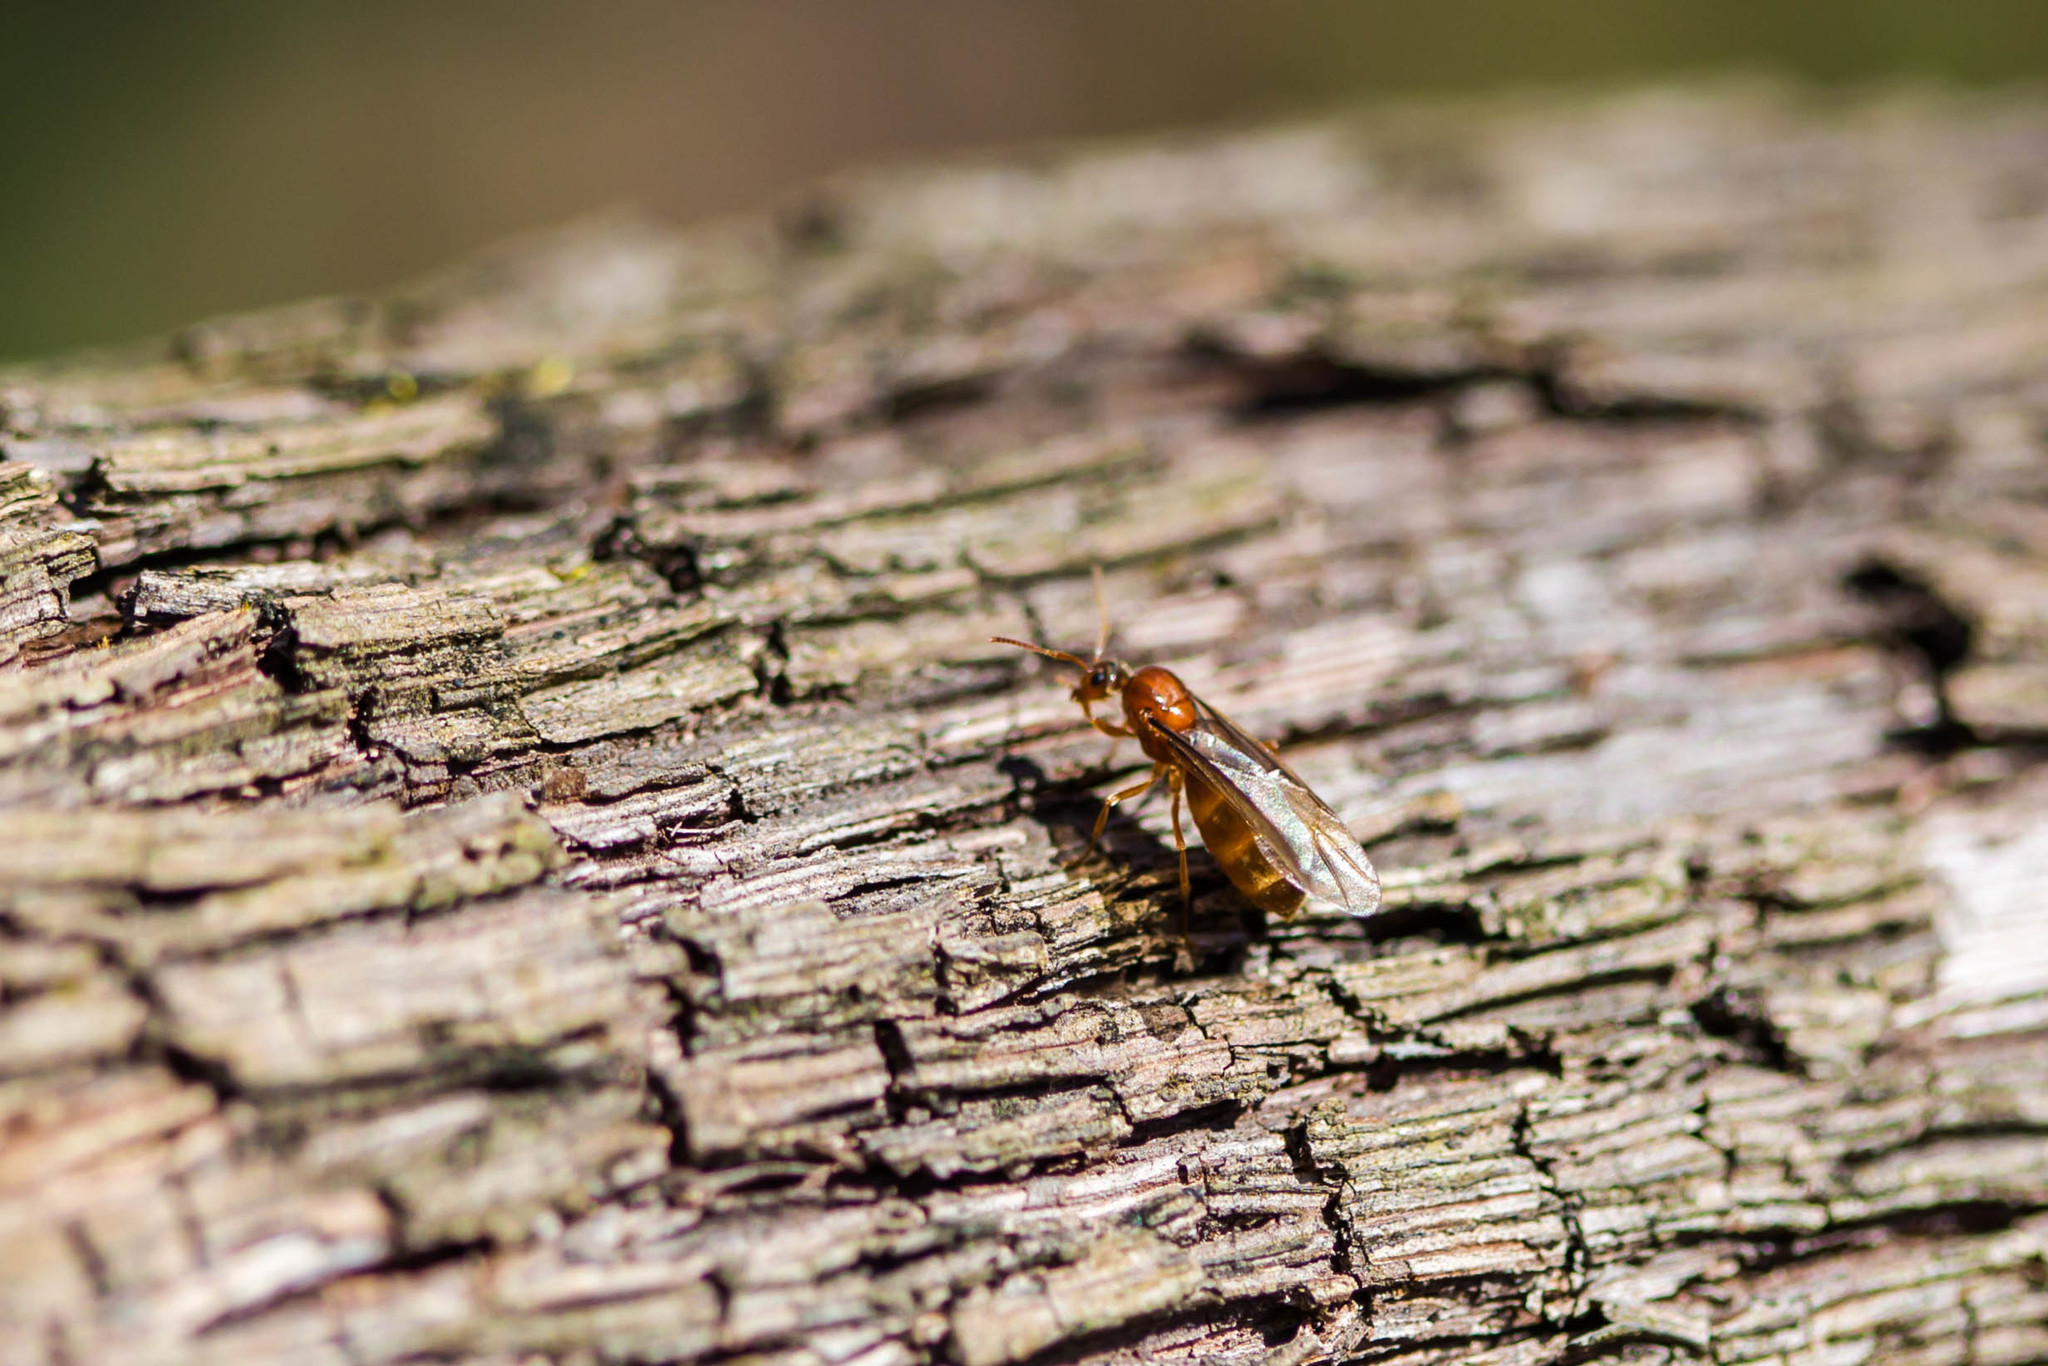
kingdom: Animalia
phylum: Arthropoda
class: Insecta
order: Hymenoptera
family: Formicidae
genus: Prenolepis
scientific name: Prenolepis imparis
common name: Small honey ant
